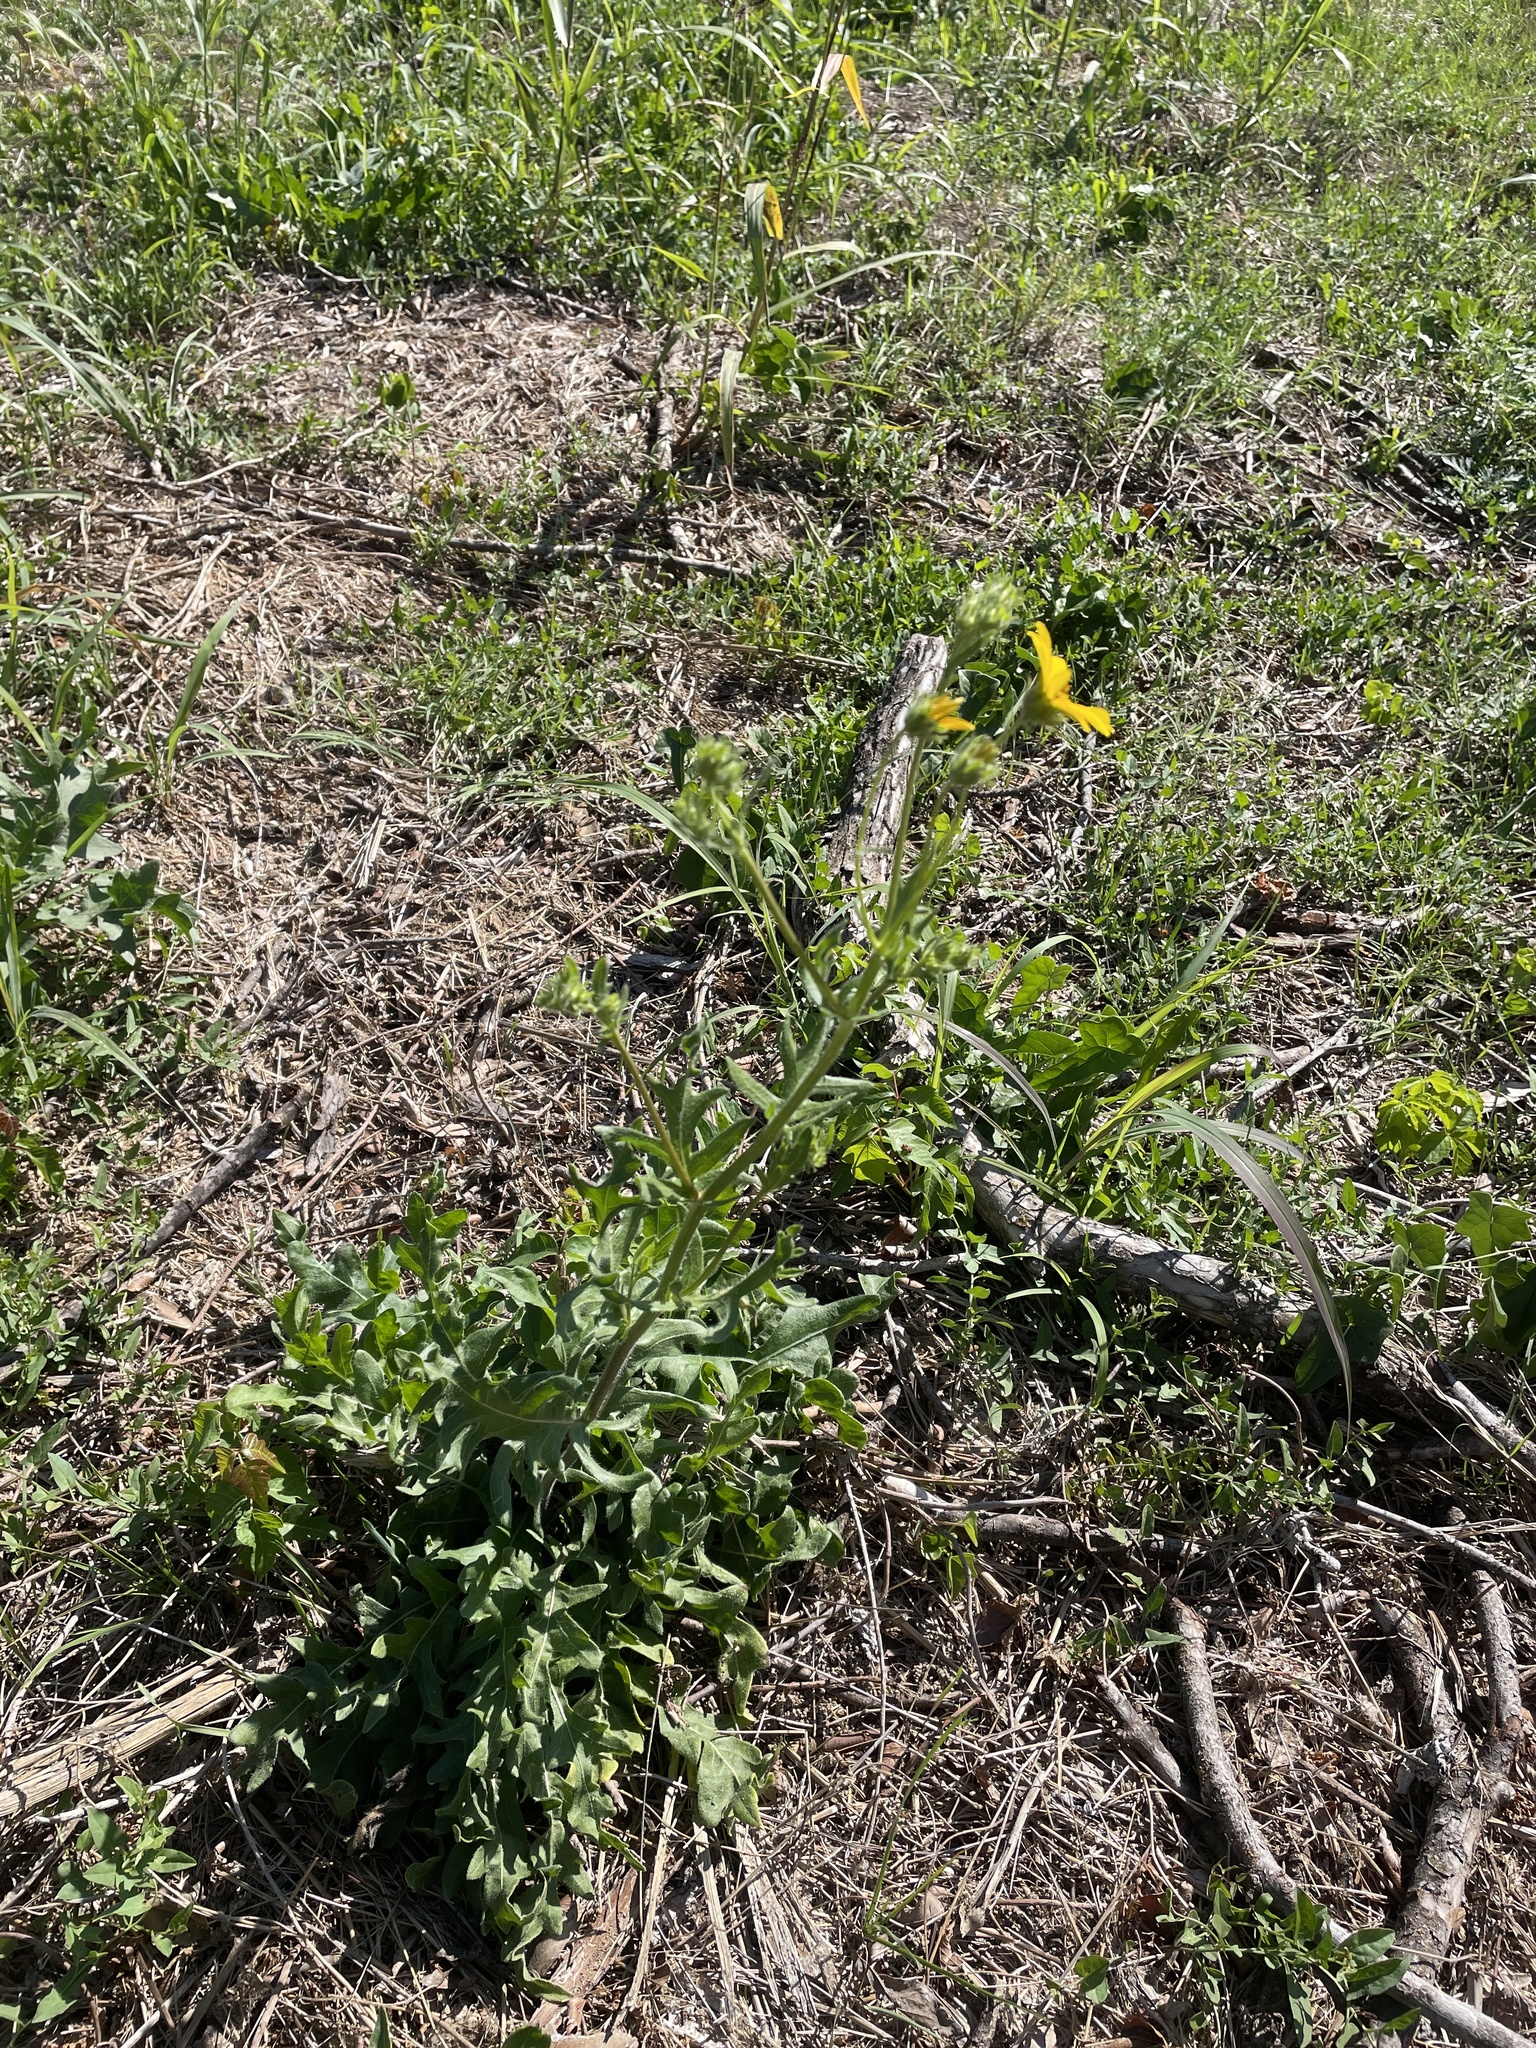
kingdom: Plantae
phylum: Tracheophyta
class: Magnoliopsida
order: Asterales
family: Asteraceae
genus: Engelmannia
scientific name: Engelmannia peristenia
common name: Engelmann's daisy
